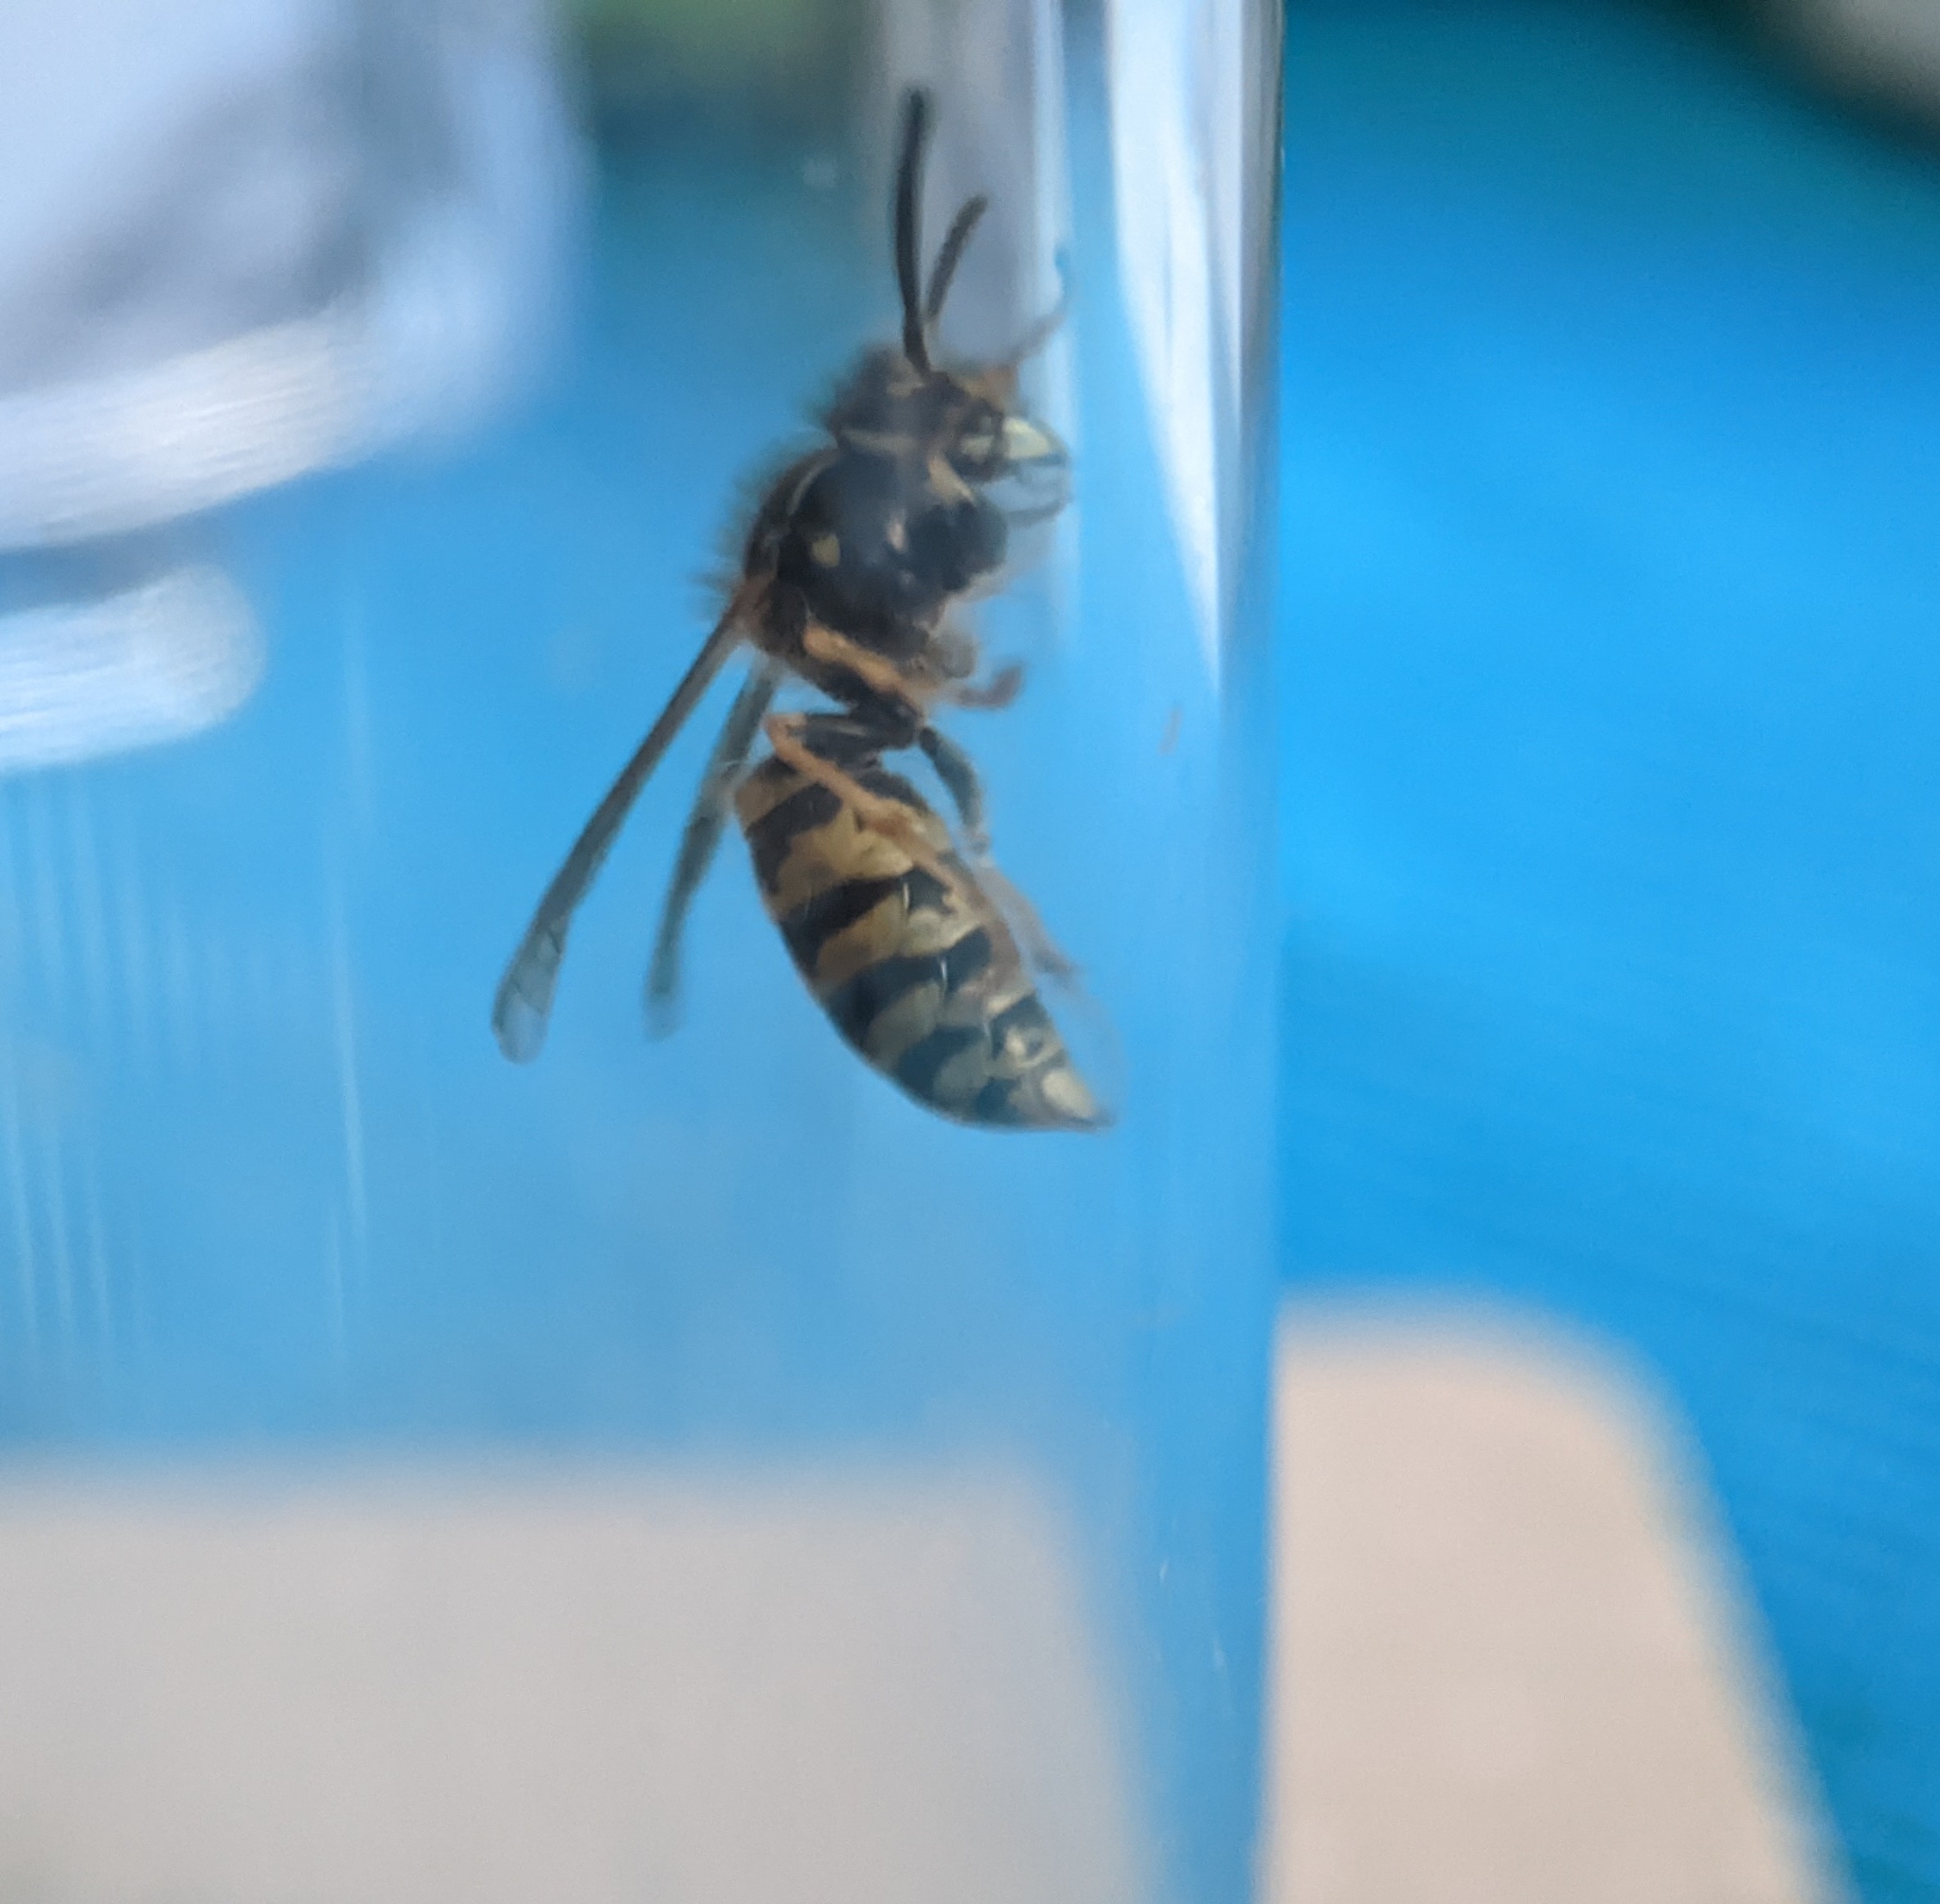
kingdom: Animalia
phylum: Arthropoda
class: Insecta
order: Hymenoptera
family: Vespidae
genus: Vespula
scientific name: Vespula vulgaris
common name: Common wasp
